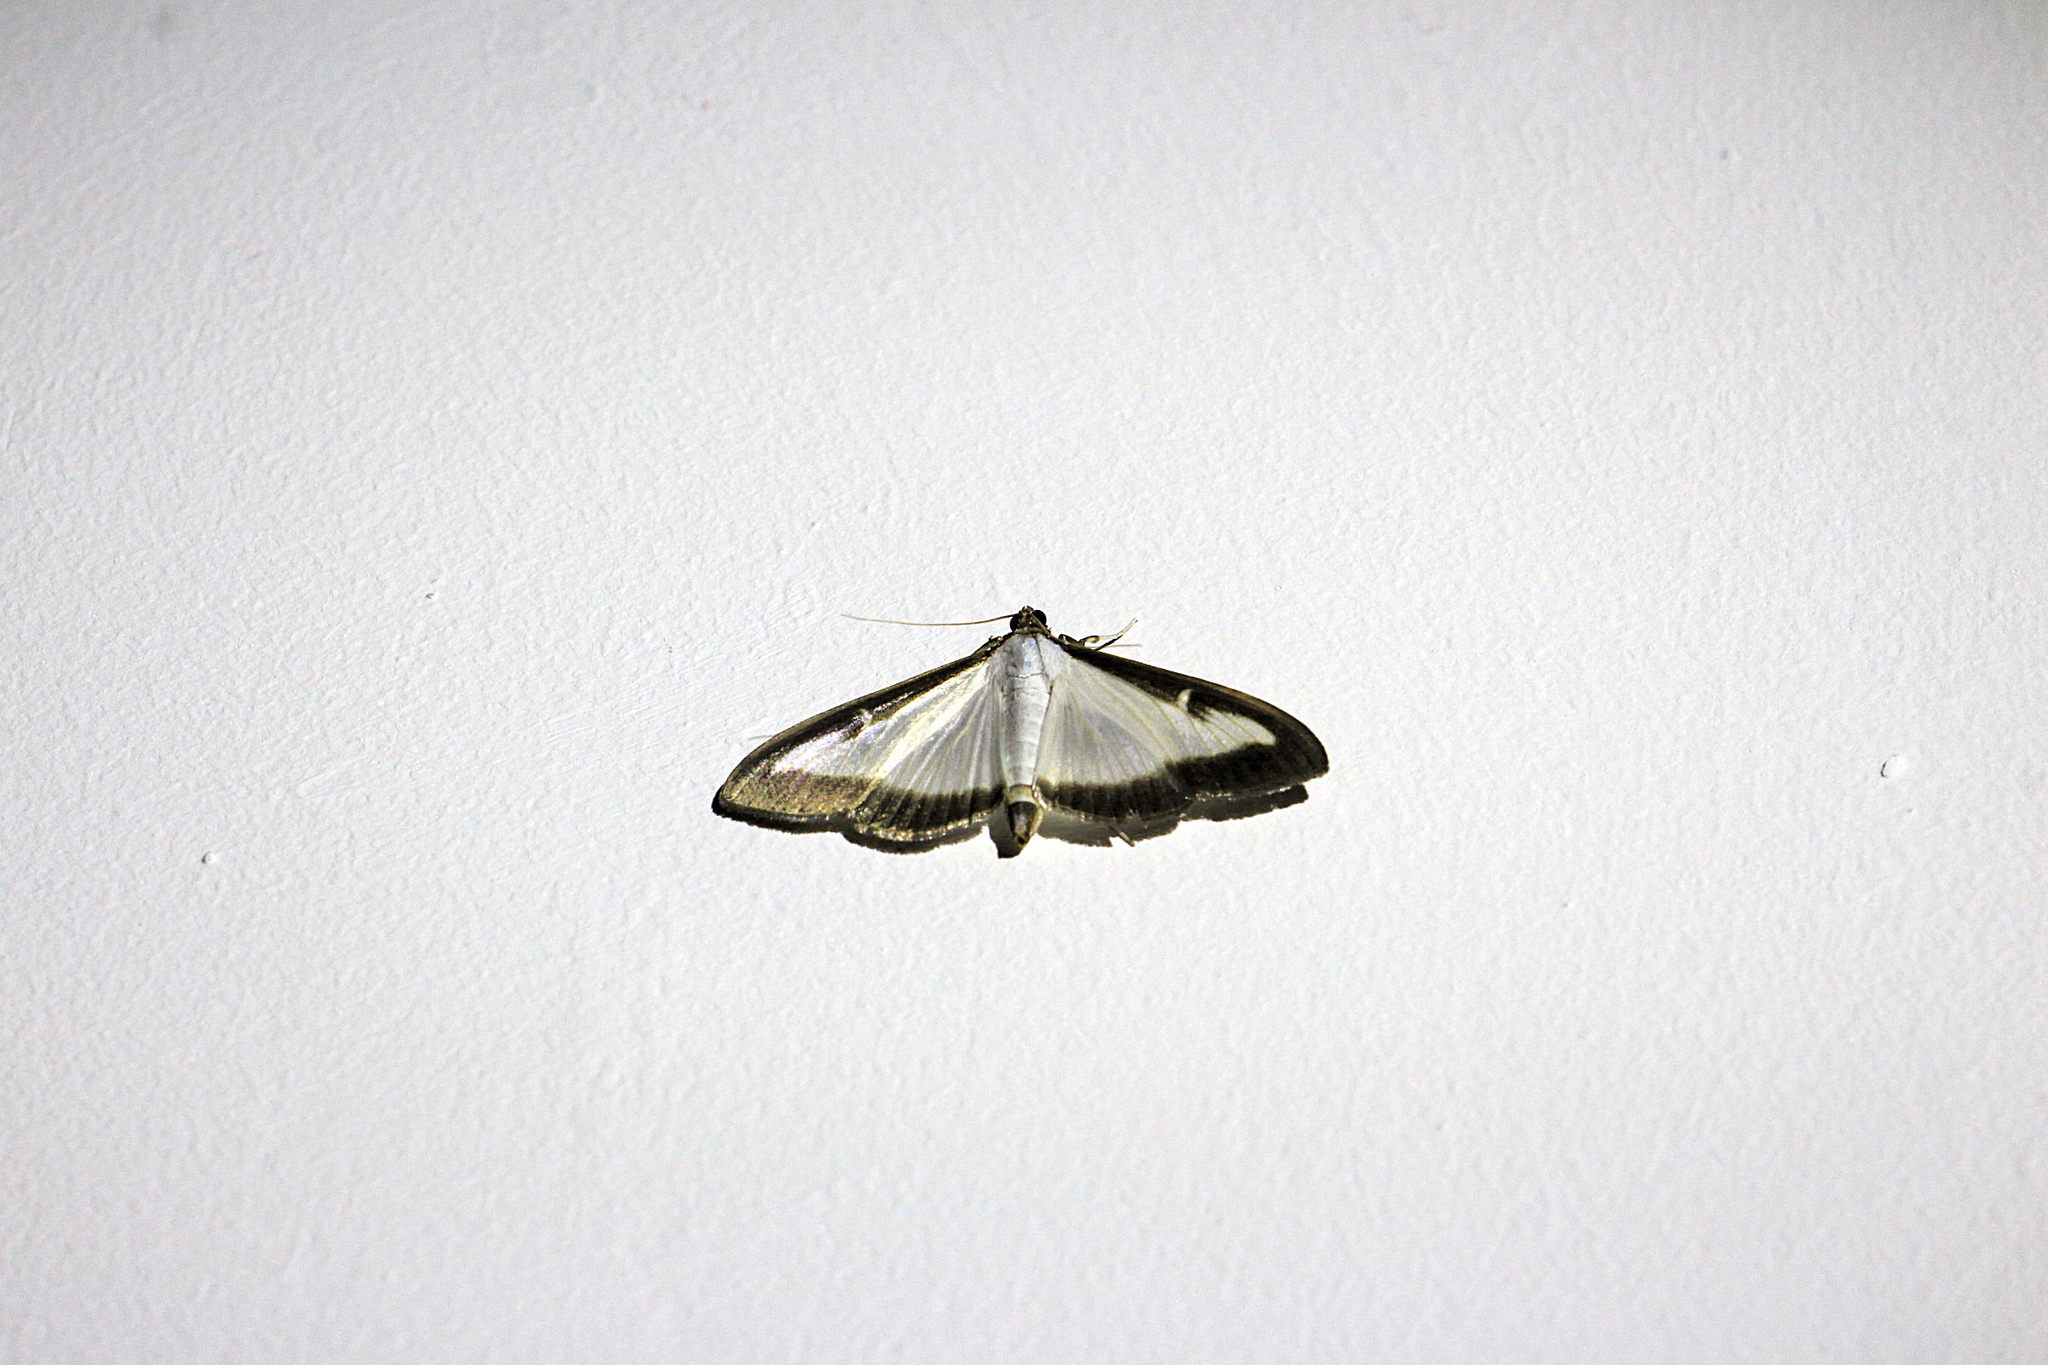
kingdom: Animalia
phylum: Arthropoda
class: Insecta
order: Lepidoptera
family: Crambidae
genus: Cydalima
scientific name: Cydalima perspectalis
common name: Box tree moth
